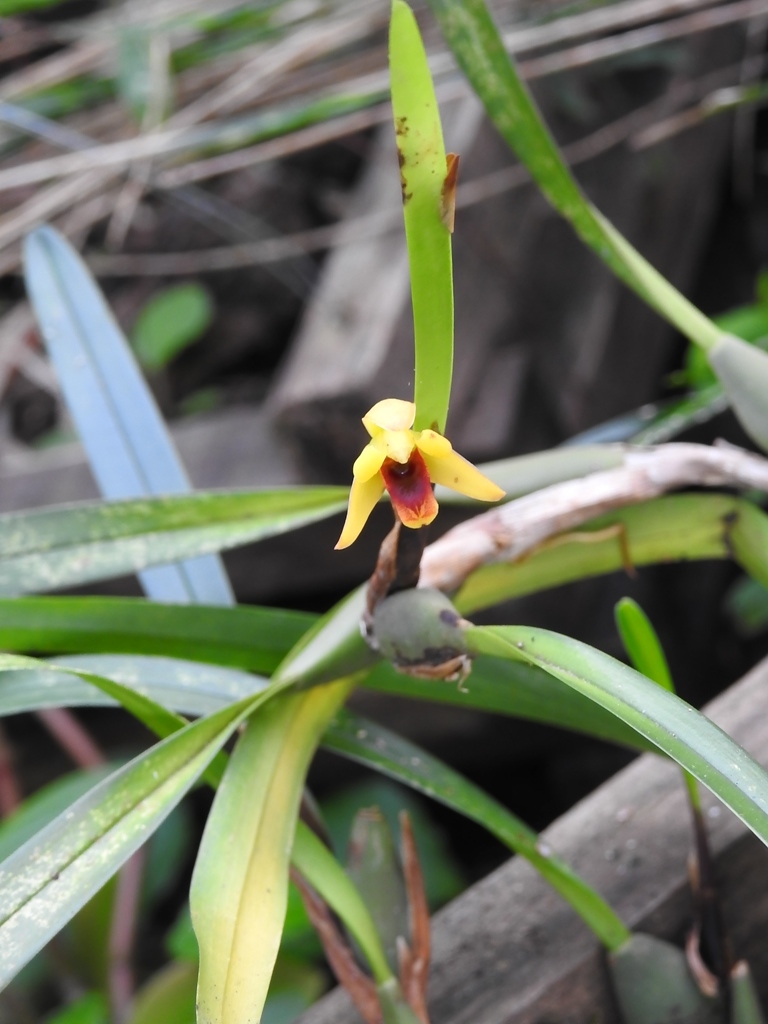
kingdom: Plantae
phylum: Tracheophyta
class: Liliopsida
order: Asparagales
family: Orchidaceae
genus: Maxillaria
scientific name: Maxillaria variabilis
